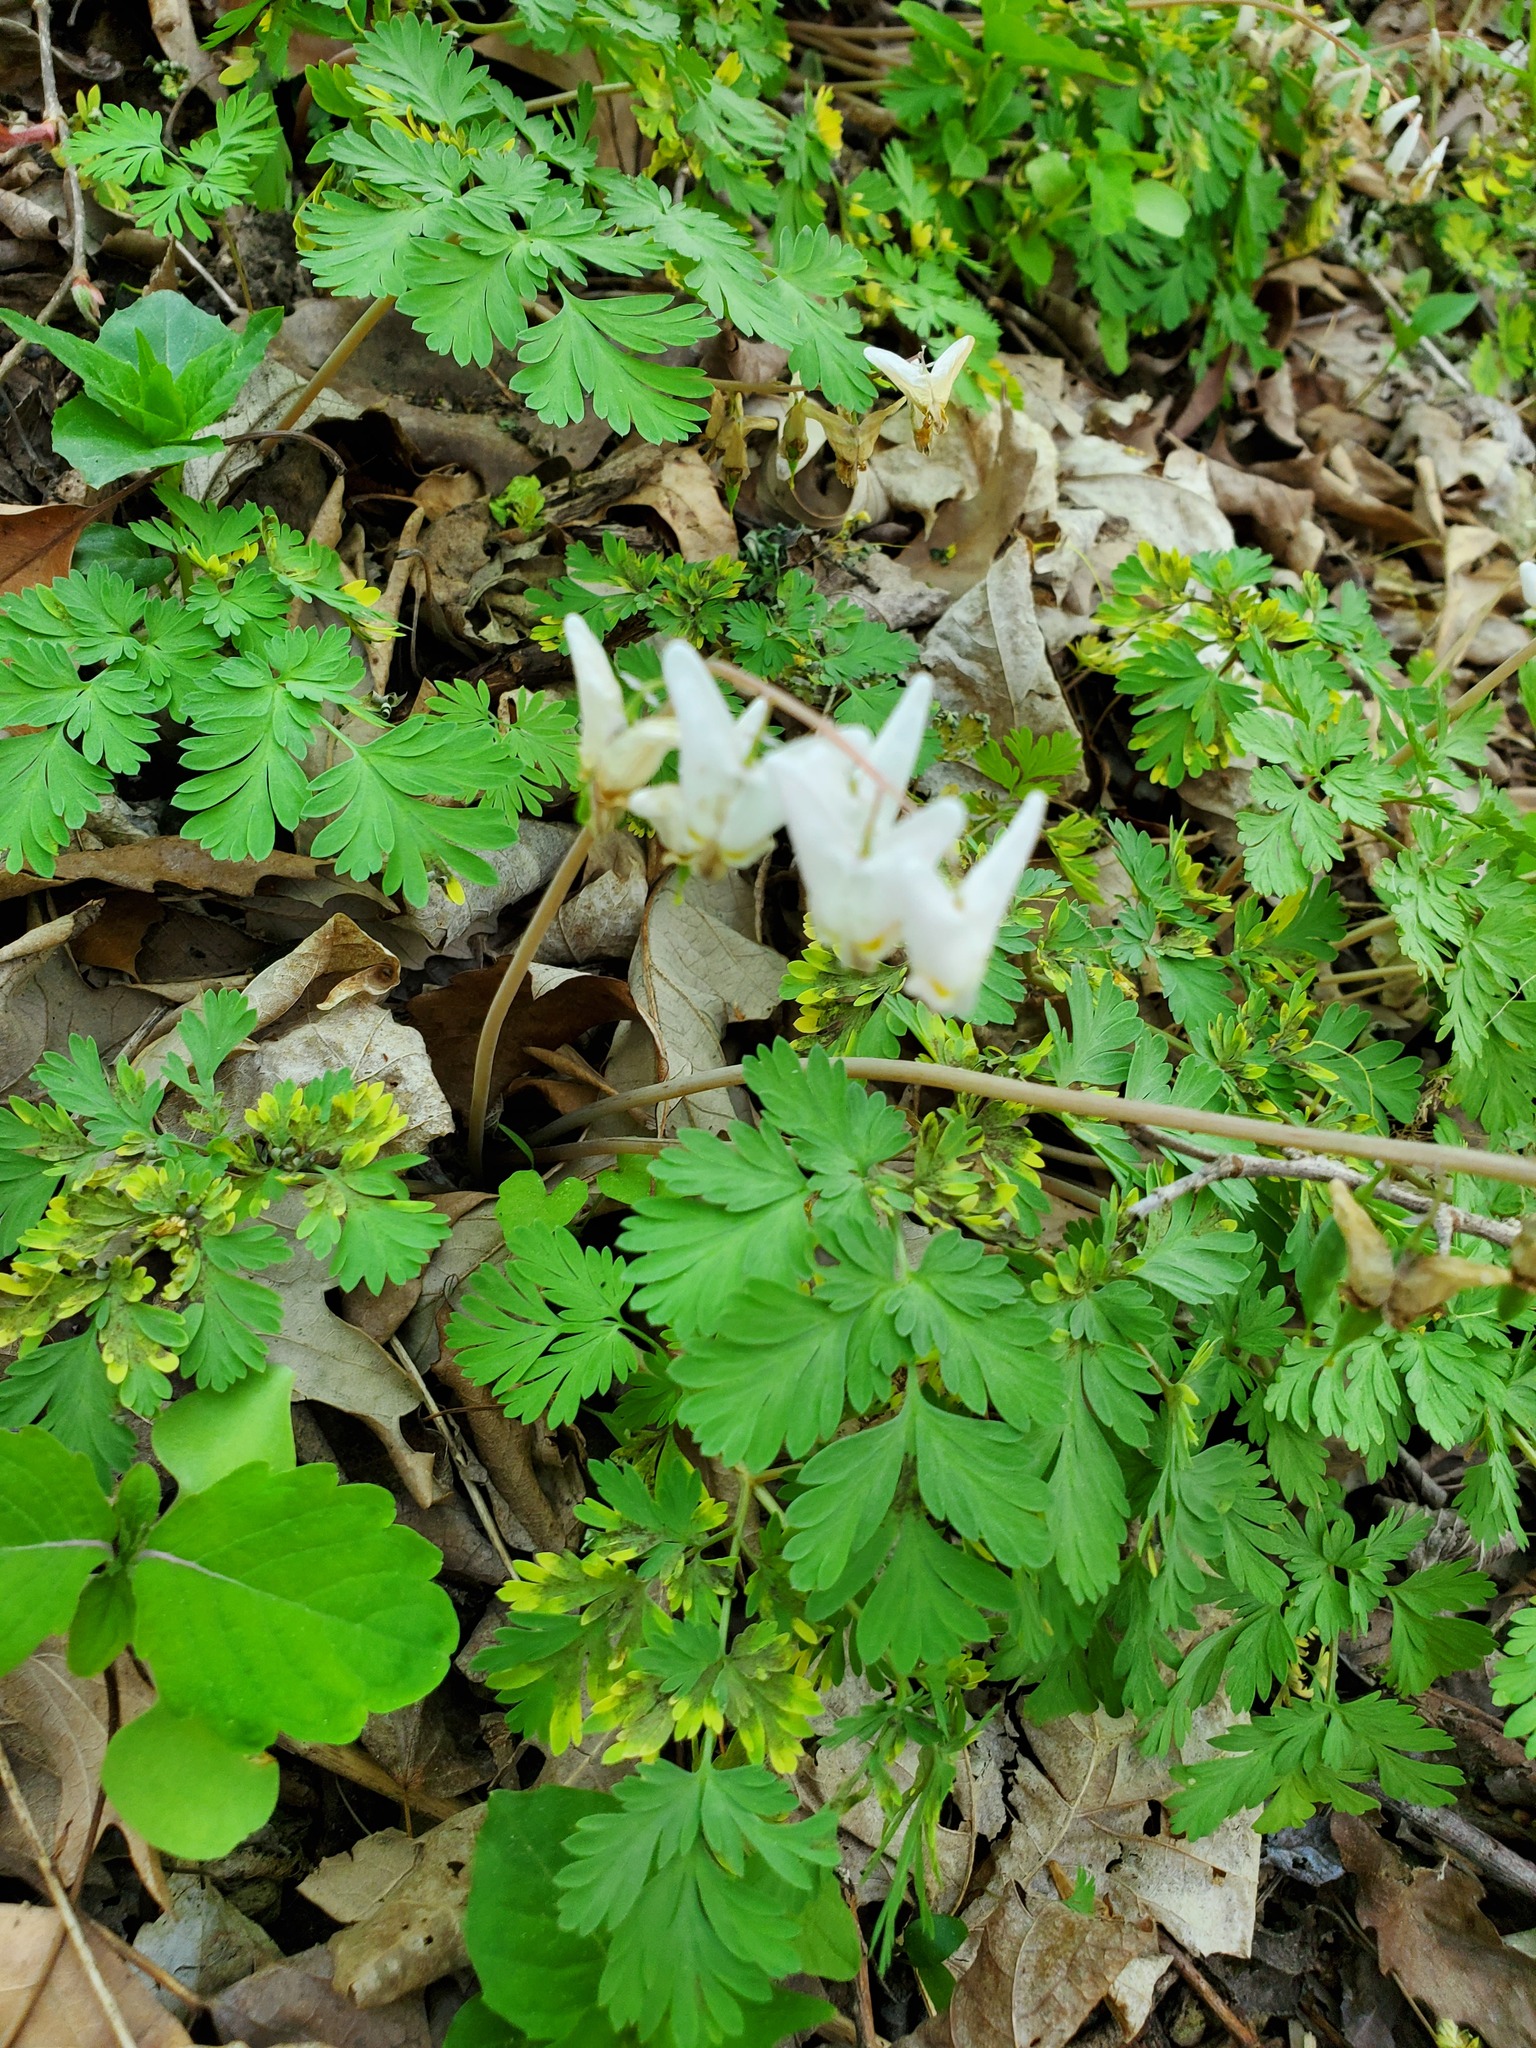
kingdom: Plantae
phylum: Tracheophyta
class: Magnoliopsida
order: Ranunculales
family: Papaveraceae
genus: Dicentra
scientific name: Dicentra cucullaria
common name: Dutchman's breeches
